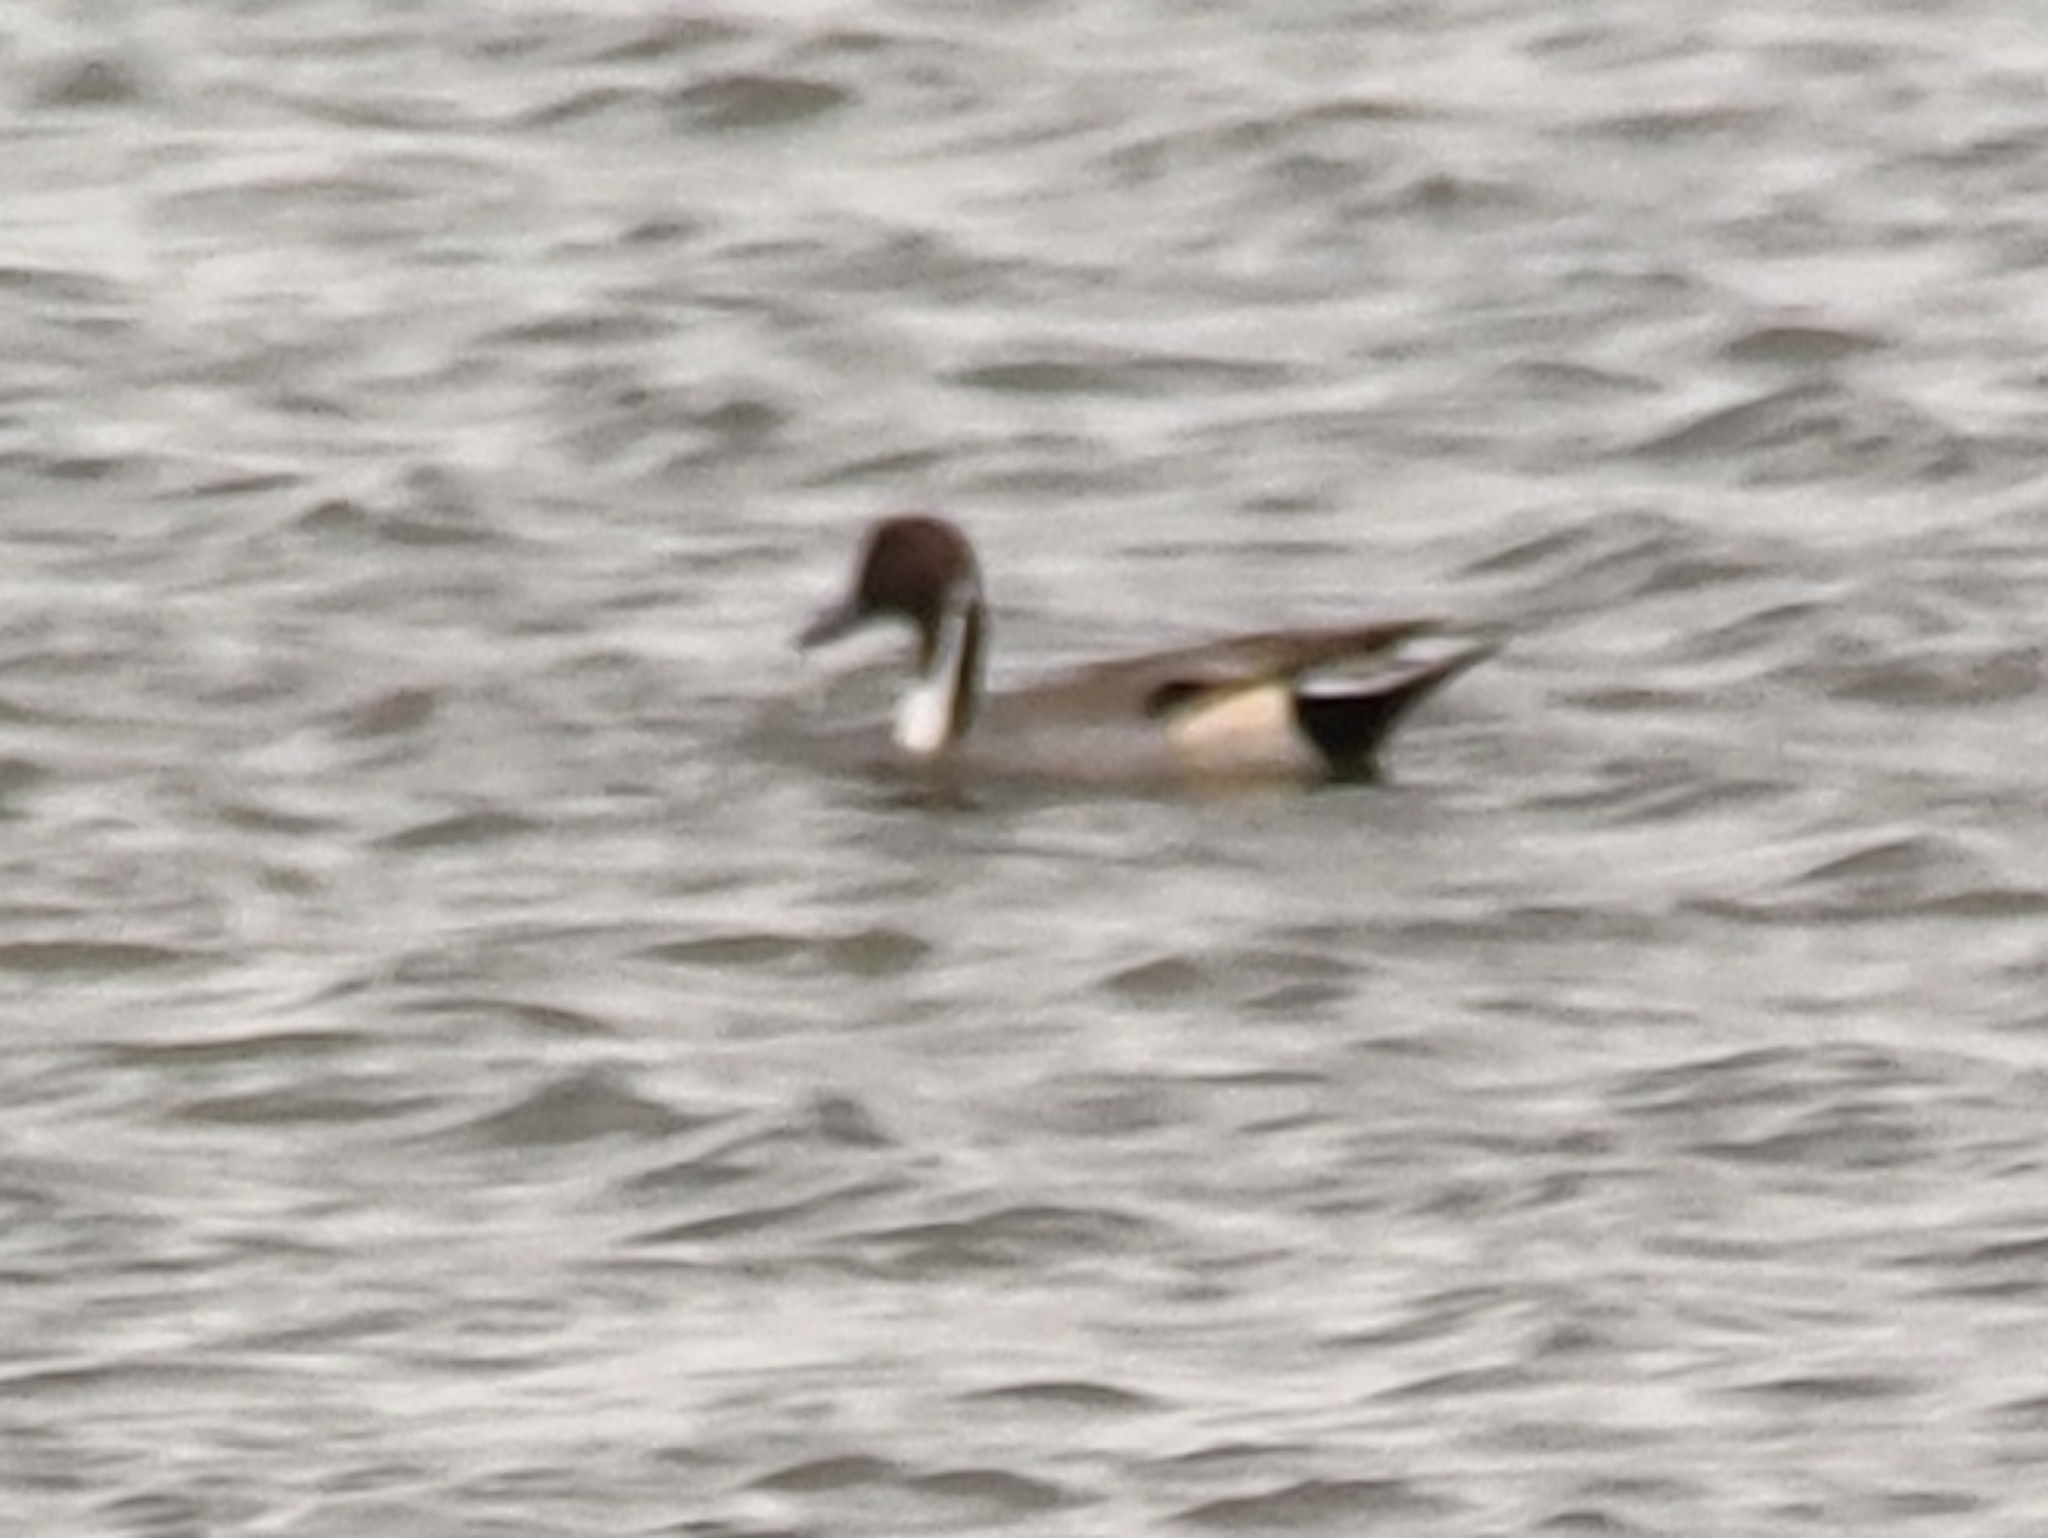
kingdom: Animalia
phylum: Chordata
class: Aves
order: Anseriformes
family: Anatidae
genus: Anas
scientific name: Anas acuta
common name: Northern pintail
